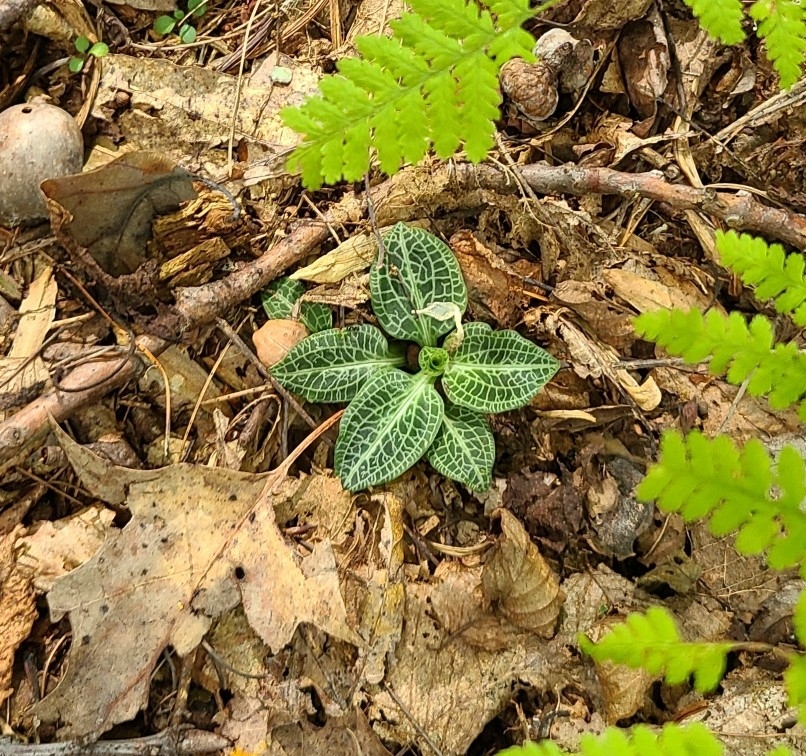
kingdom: Plantae
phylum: Tracheophyta
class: Liliopsida
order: Asparagales
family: Orchidaceae
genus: Goodyera
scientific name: Goodyera pubescens
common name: Downy rattlesnake-plantain
